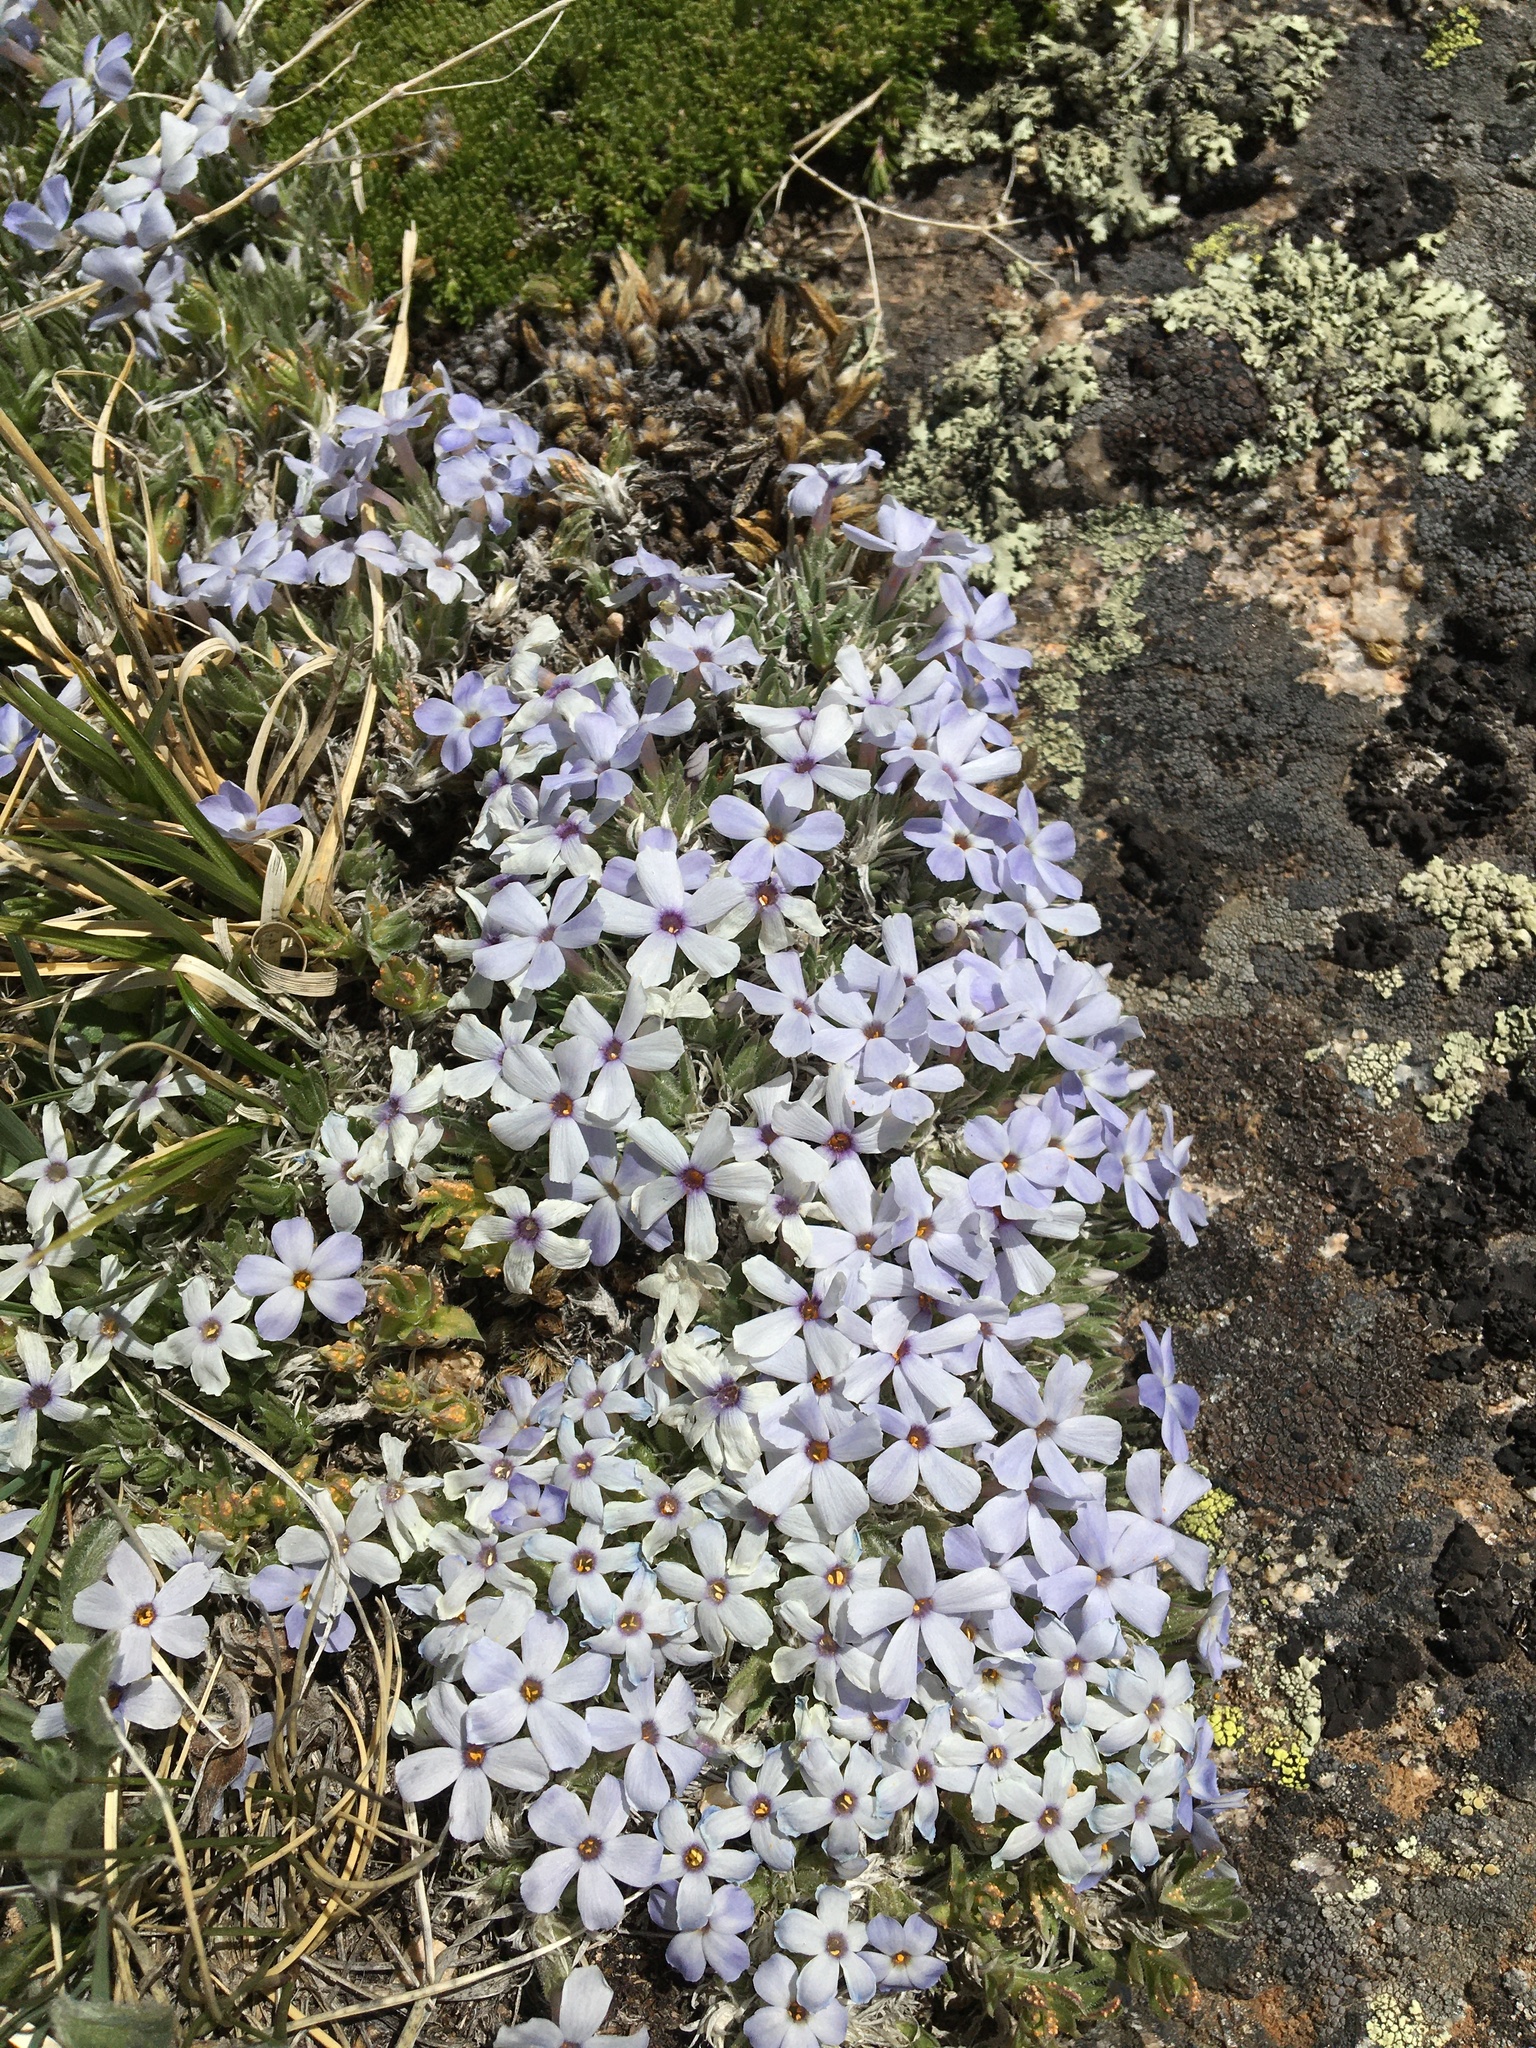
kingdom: Plantae
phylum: Tracheophyta
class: Magnoliopsida
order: Ericales
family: Polemoniaceae
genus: Phlox
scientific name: Phlox condensata
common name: Compact phlox
